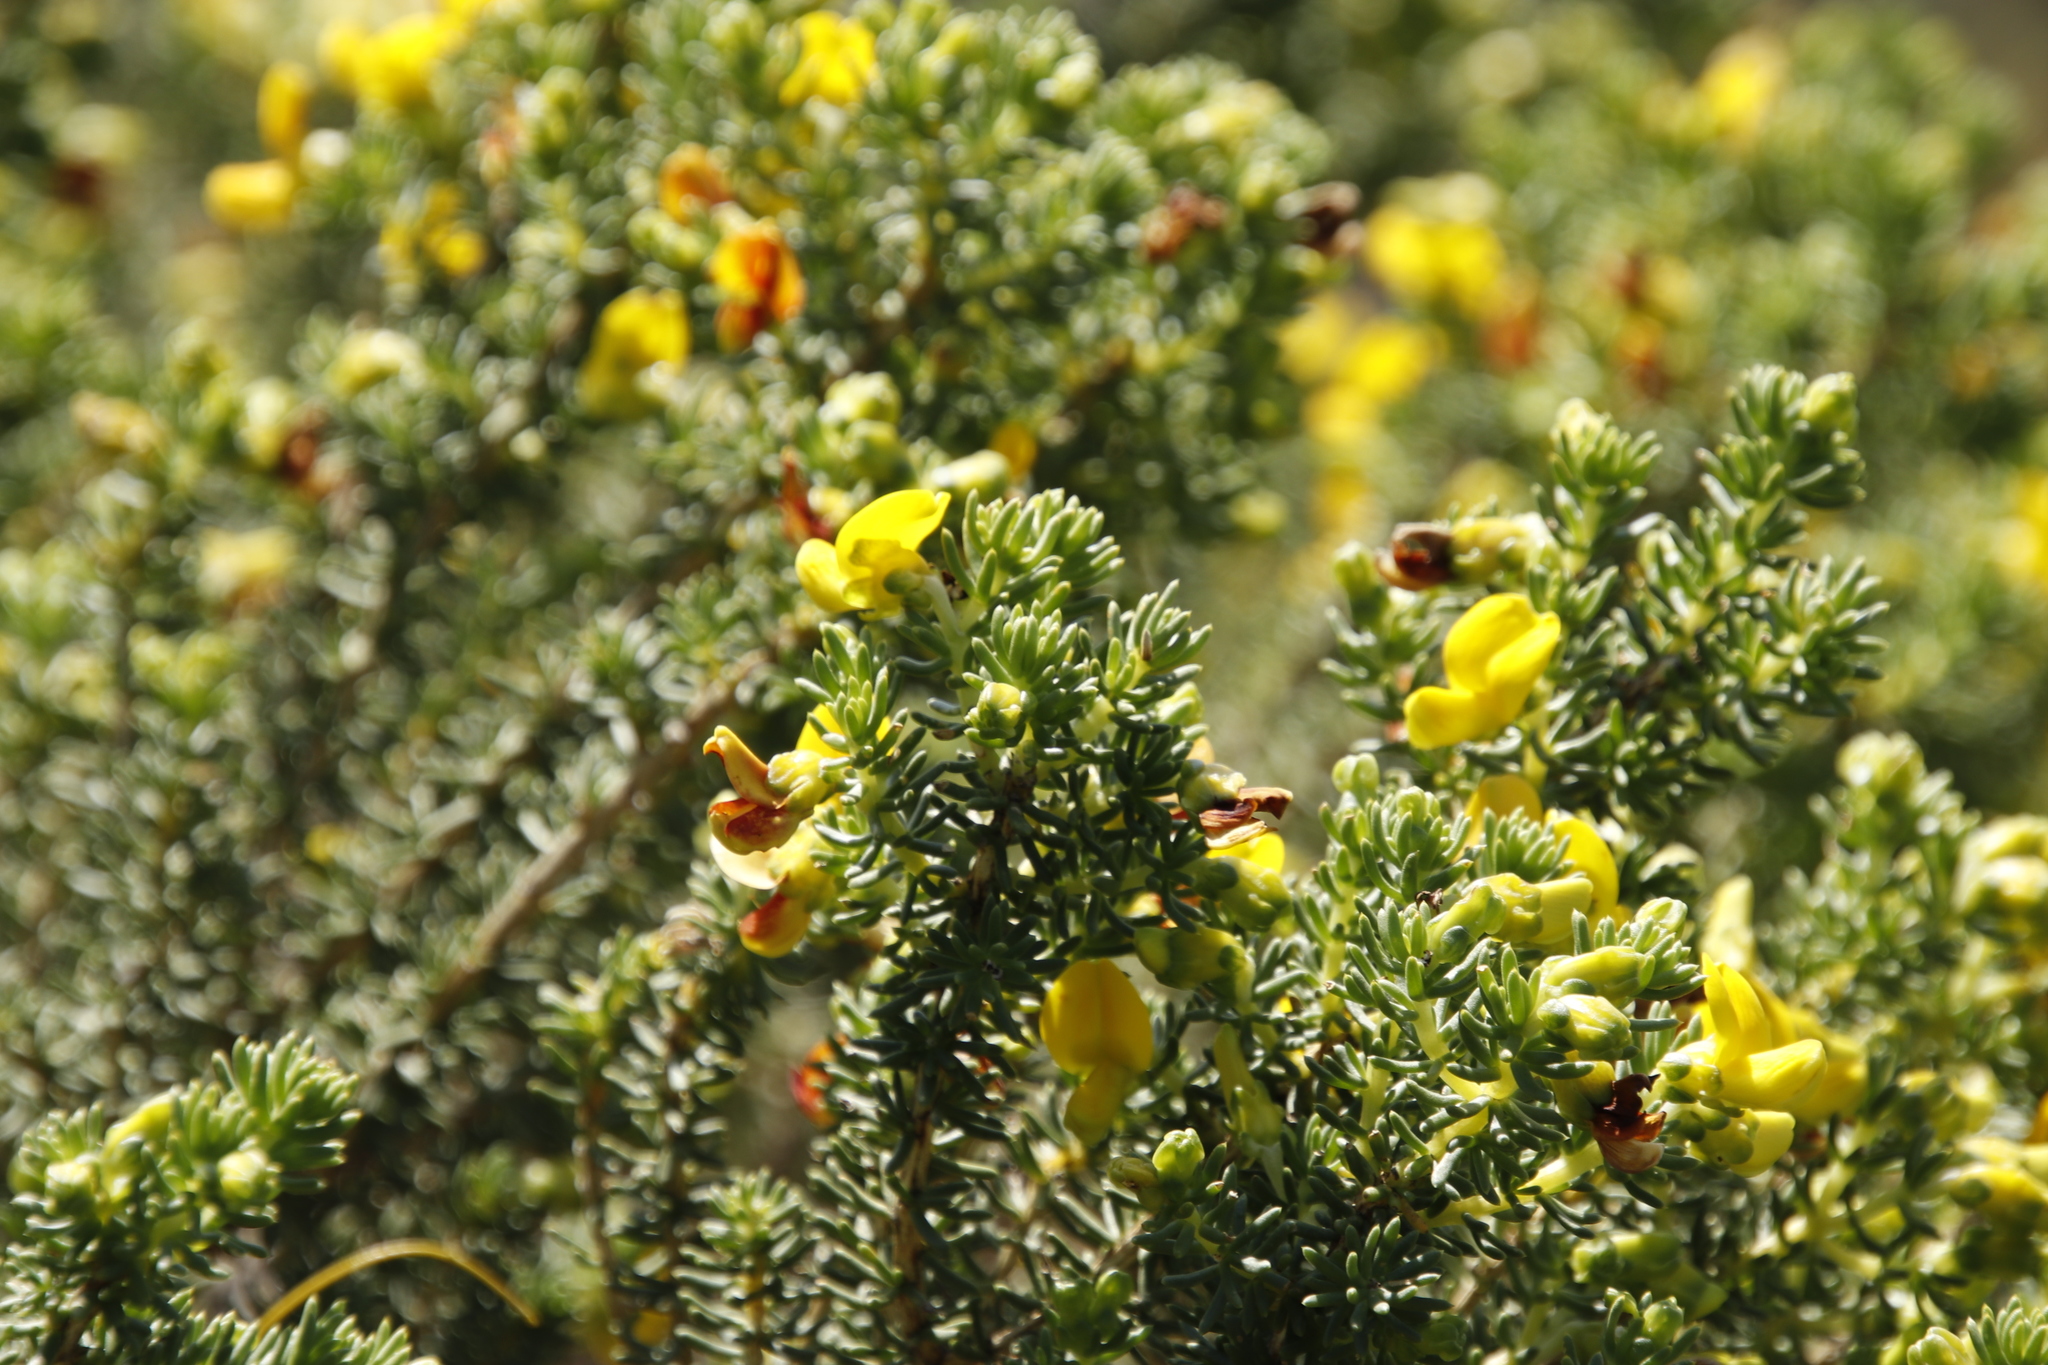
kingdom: Plantae
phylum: Tracheophyta
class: Magnoliopsida
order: Fabales
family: Fabaceae
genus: Aspalathus
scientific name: Aspalathus capensis
